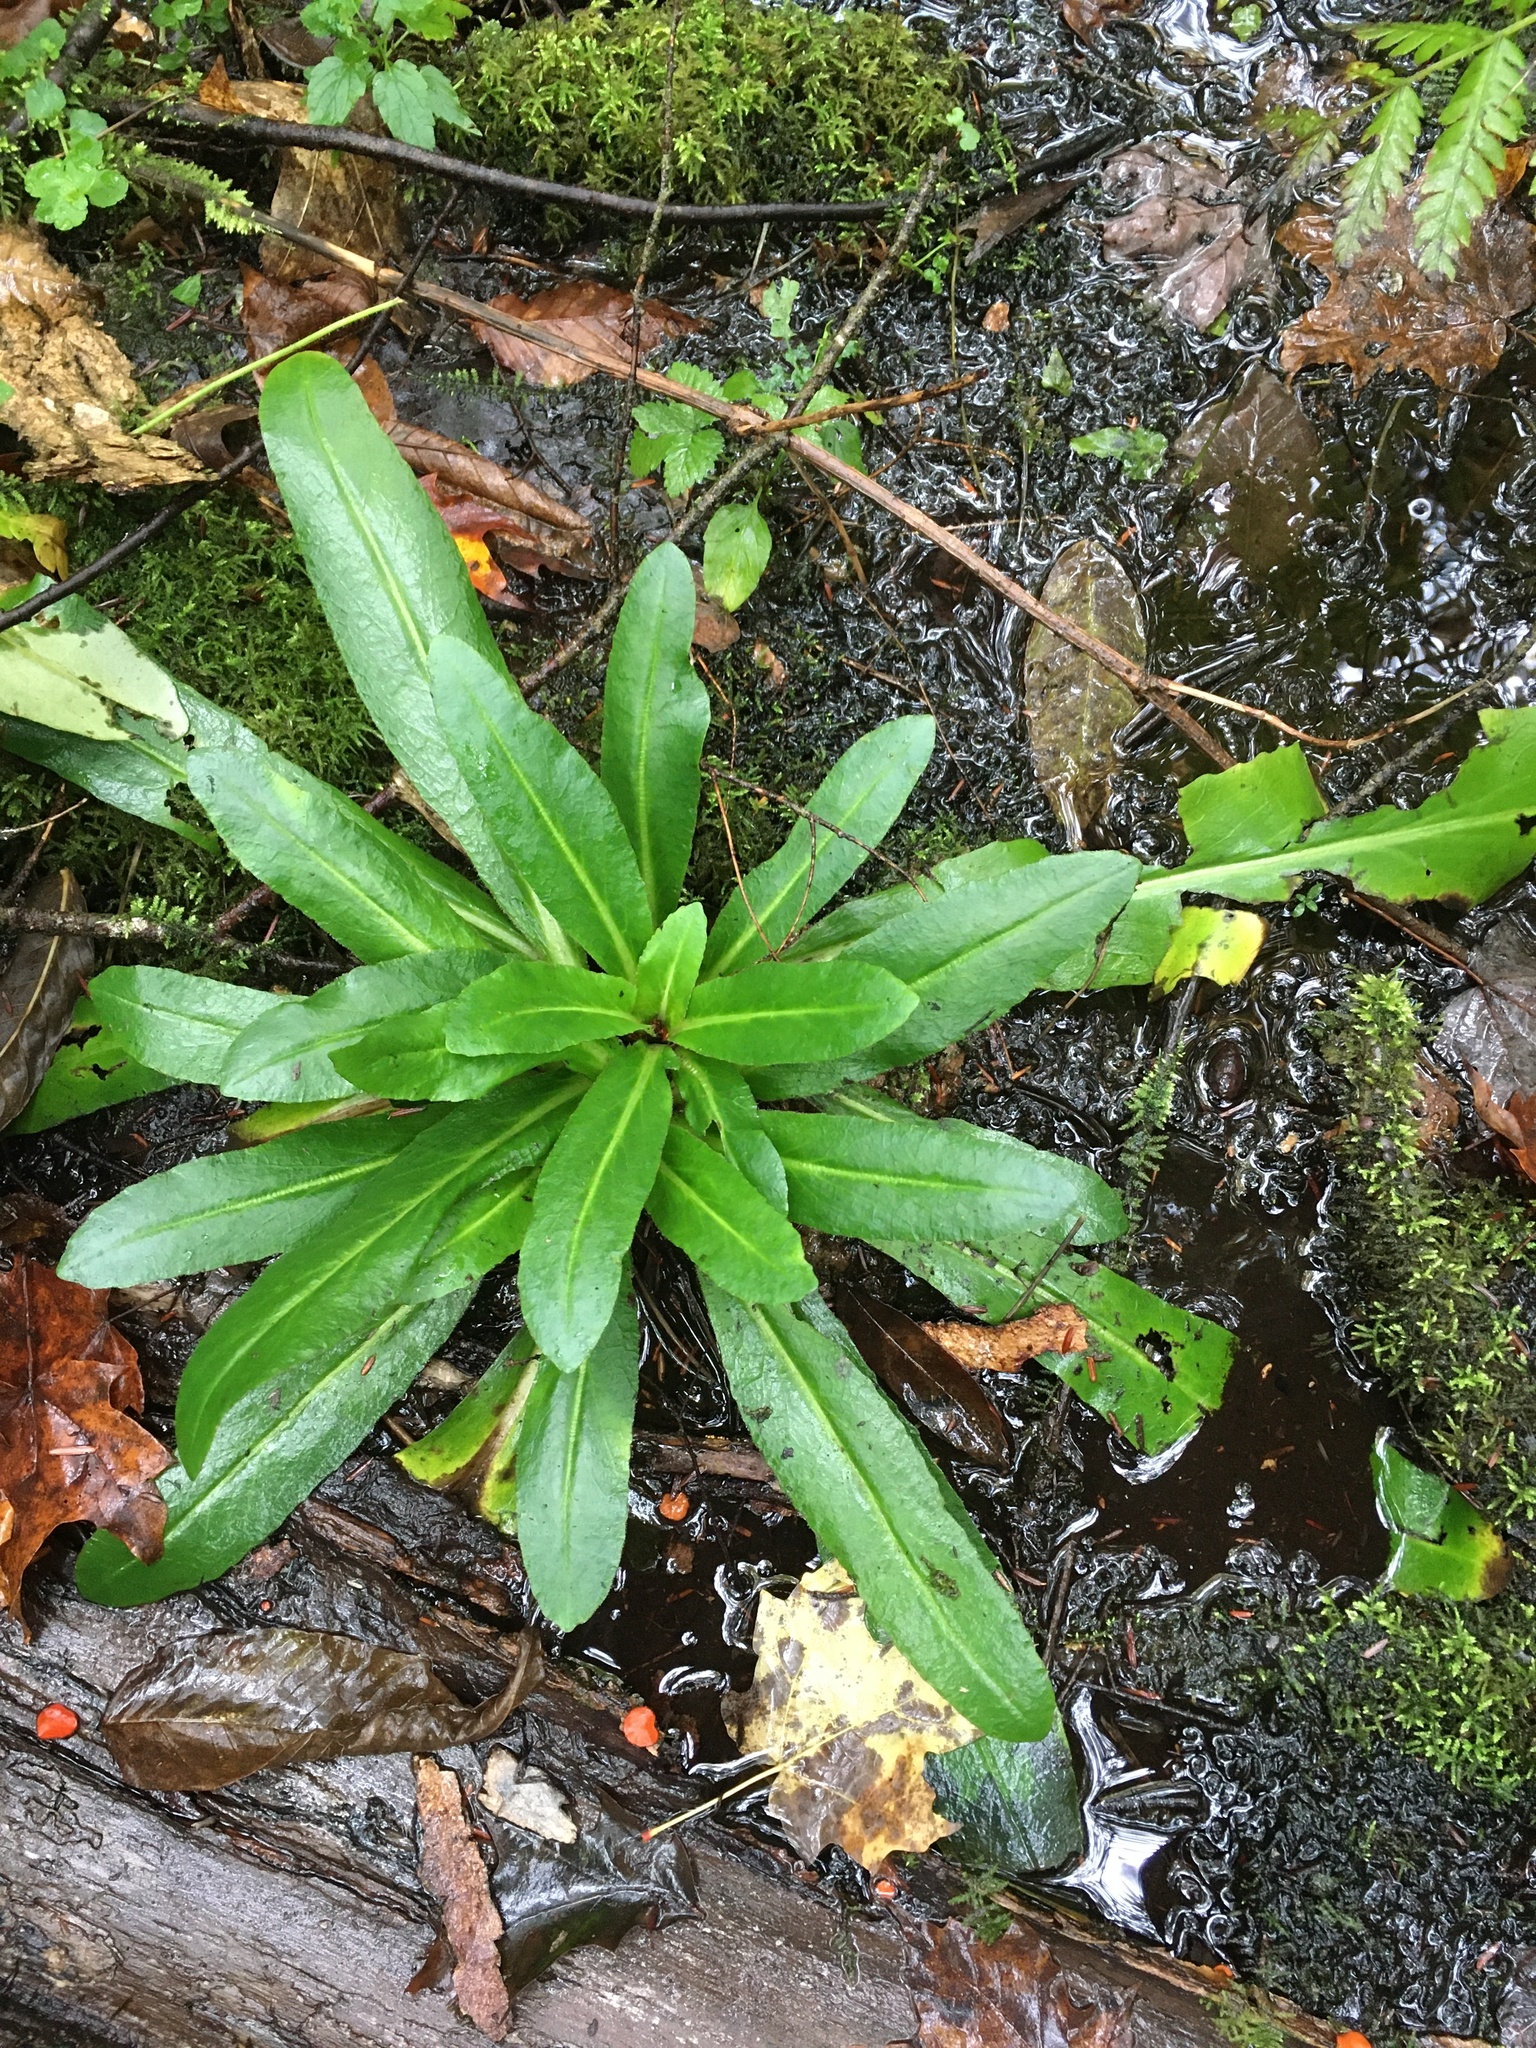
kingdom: Plantae
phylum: Tracheophyta
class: Magnoliopsida
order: Saxifragales
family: Saxifragaceae
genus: Micranthes
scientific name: Micranthes pensylvanica
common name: Marsh saxifrage
